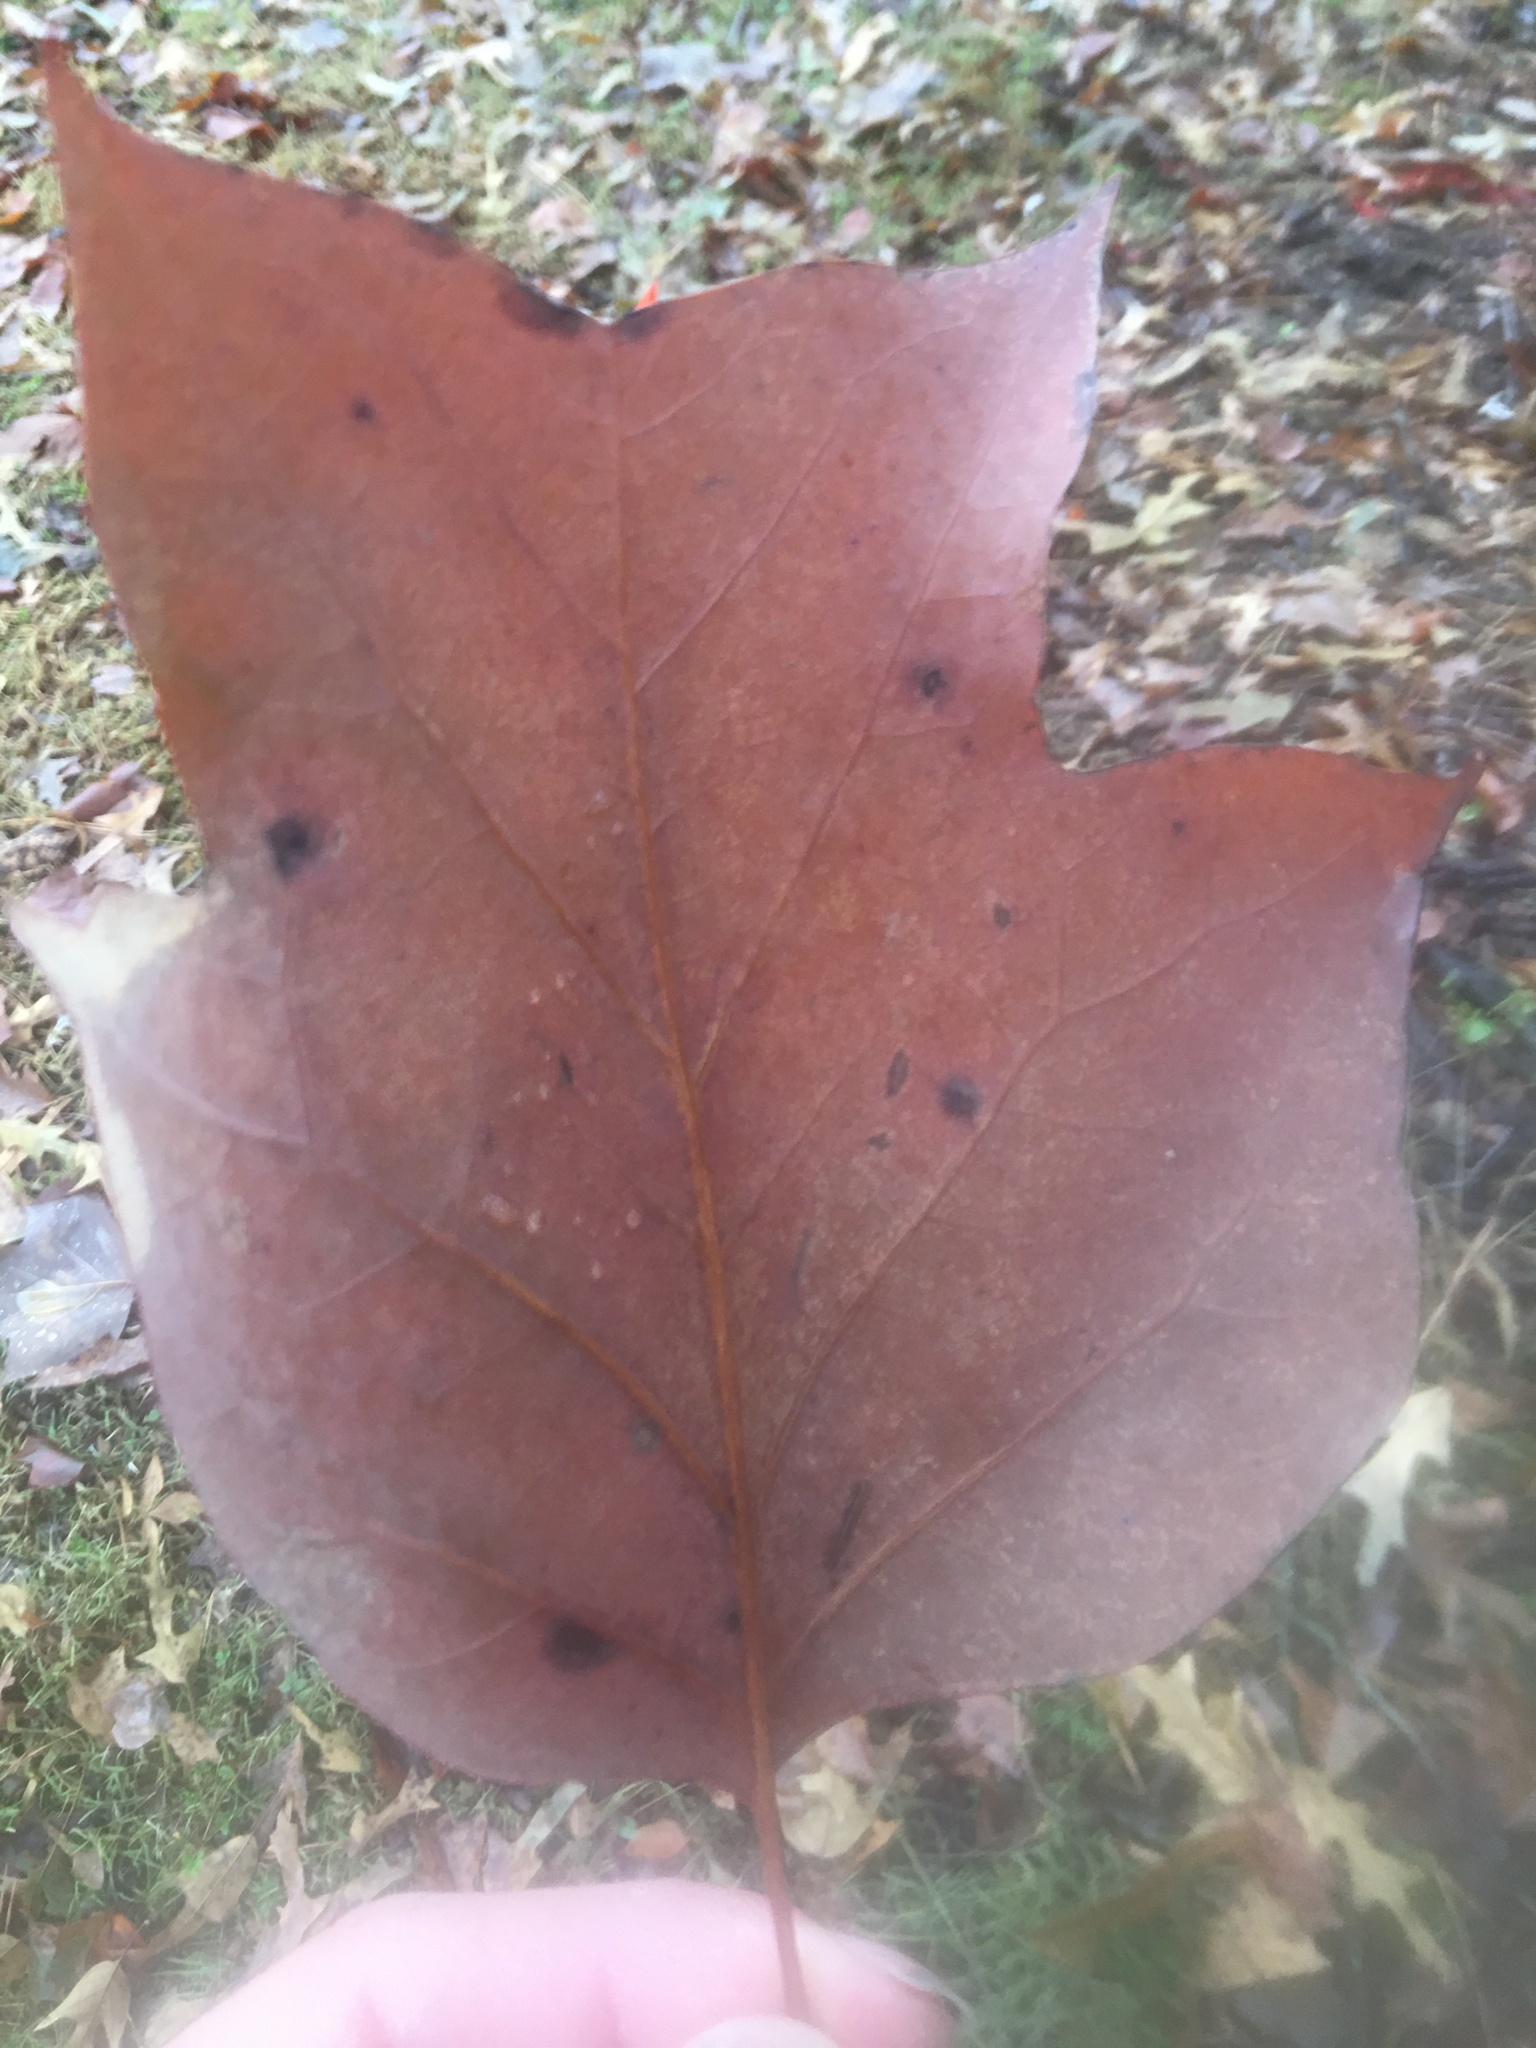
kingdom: Plantae
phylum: Tracheophyta
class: Magnoliopsida
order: Magnoliales
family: Magnoliaceae
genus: Liriodendron
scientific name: Liriodendron tulipifera
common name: Tulip tree
